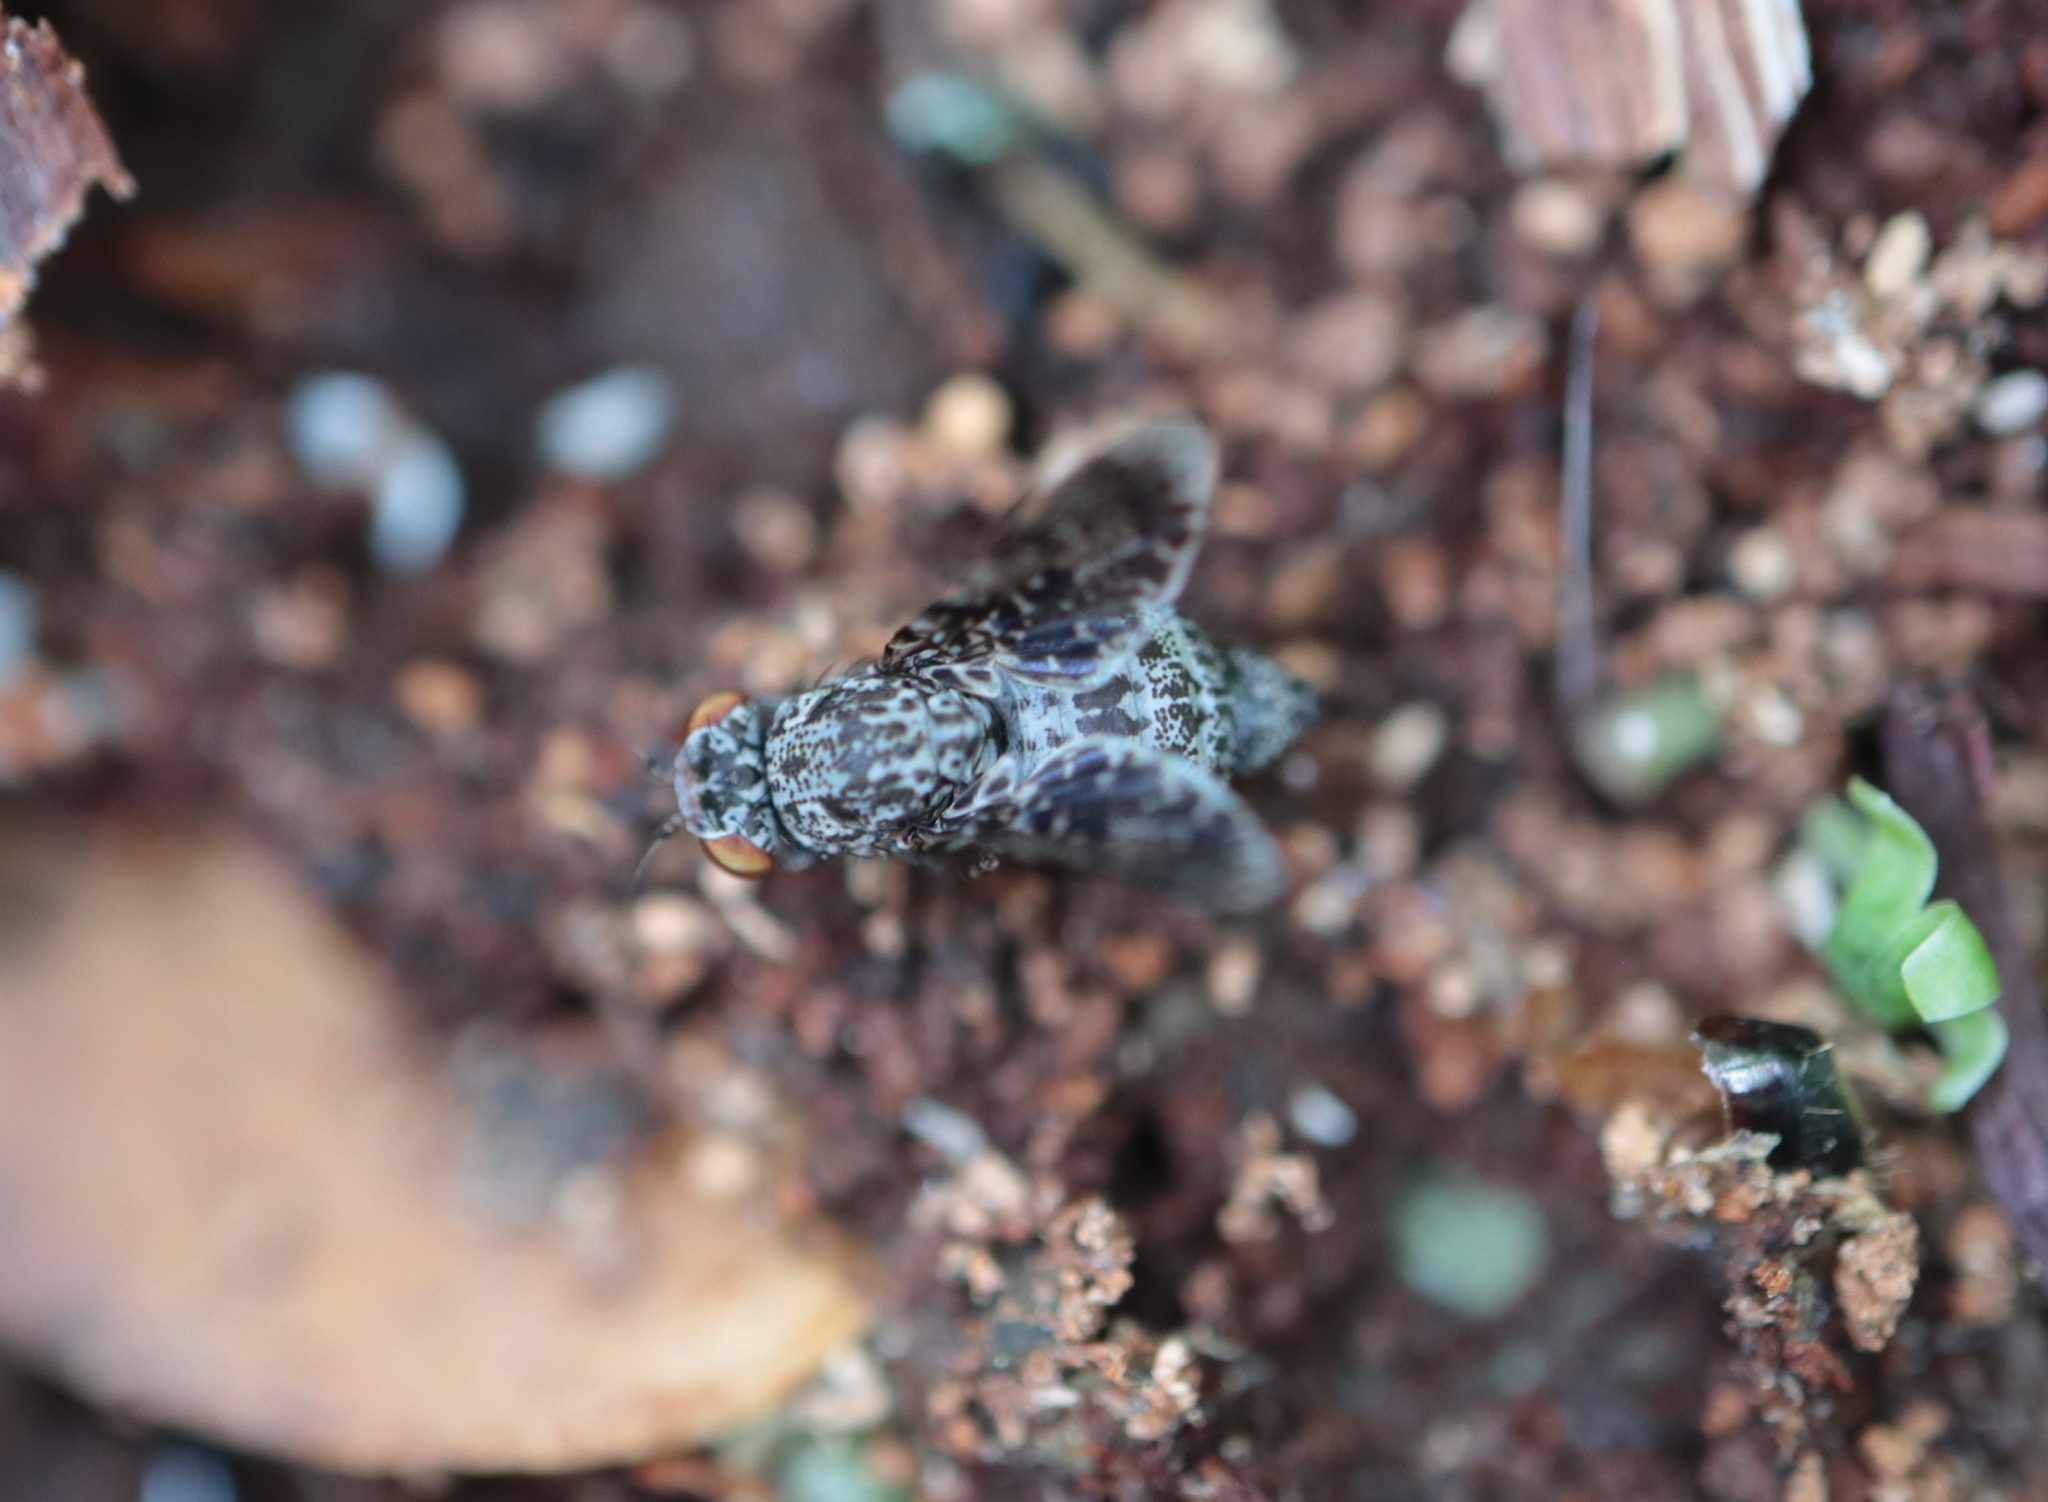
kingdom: Animalia
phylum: Arthropoda
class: Insecta
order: Diptera
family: Ulidiidae
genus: Callopistromyia
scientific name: Callopistromyia annulipes
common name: Peacock fly
